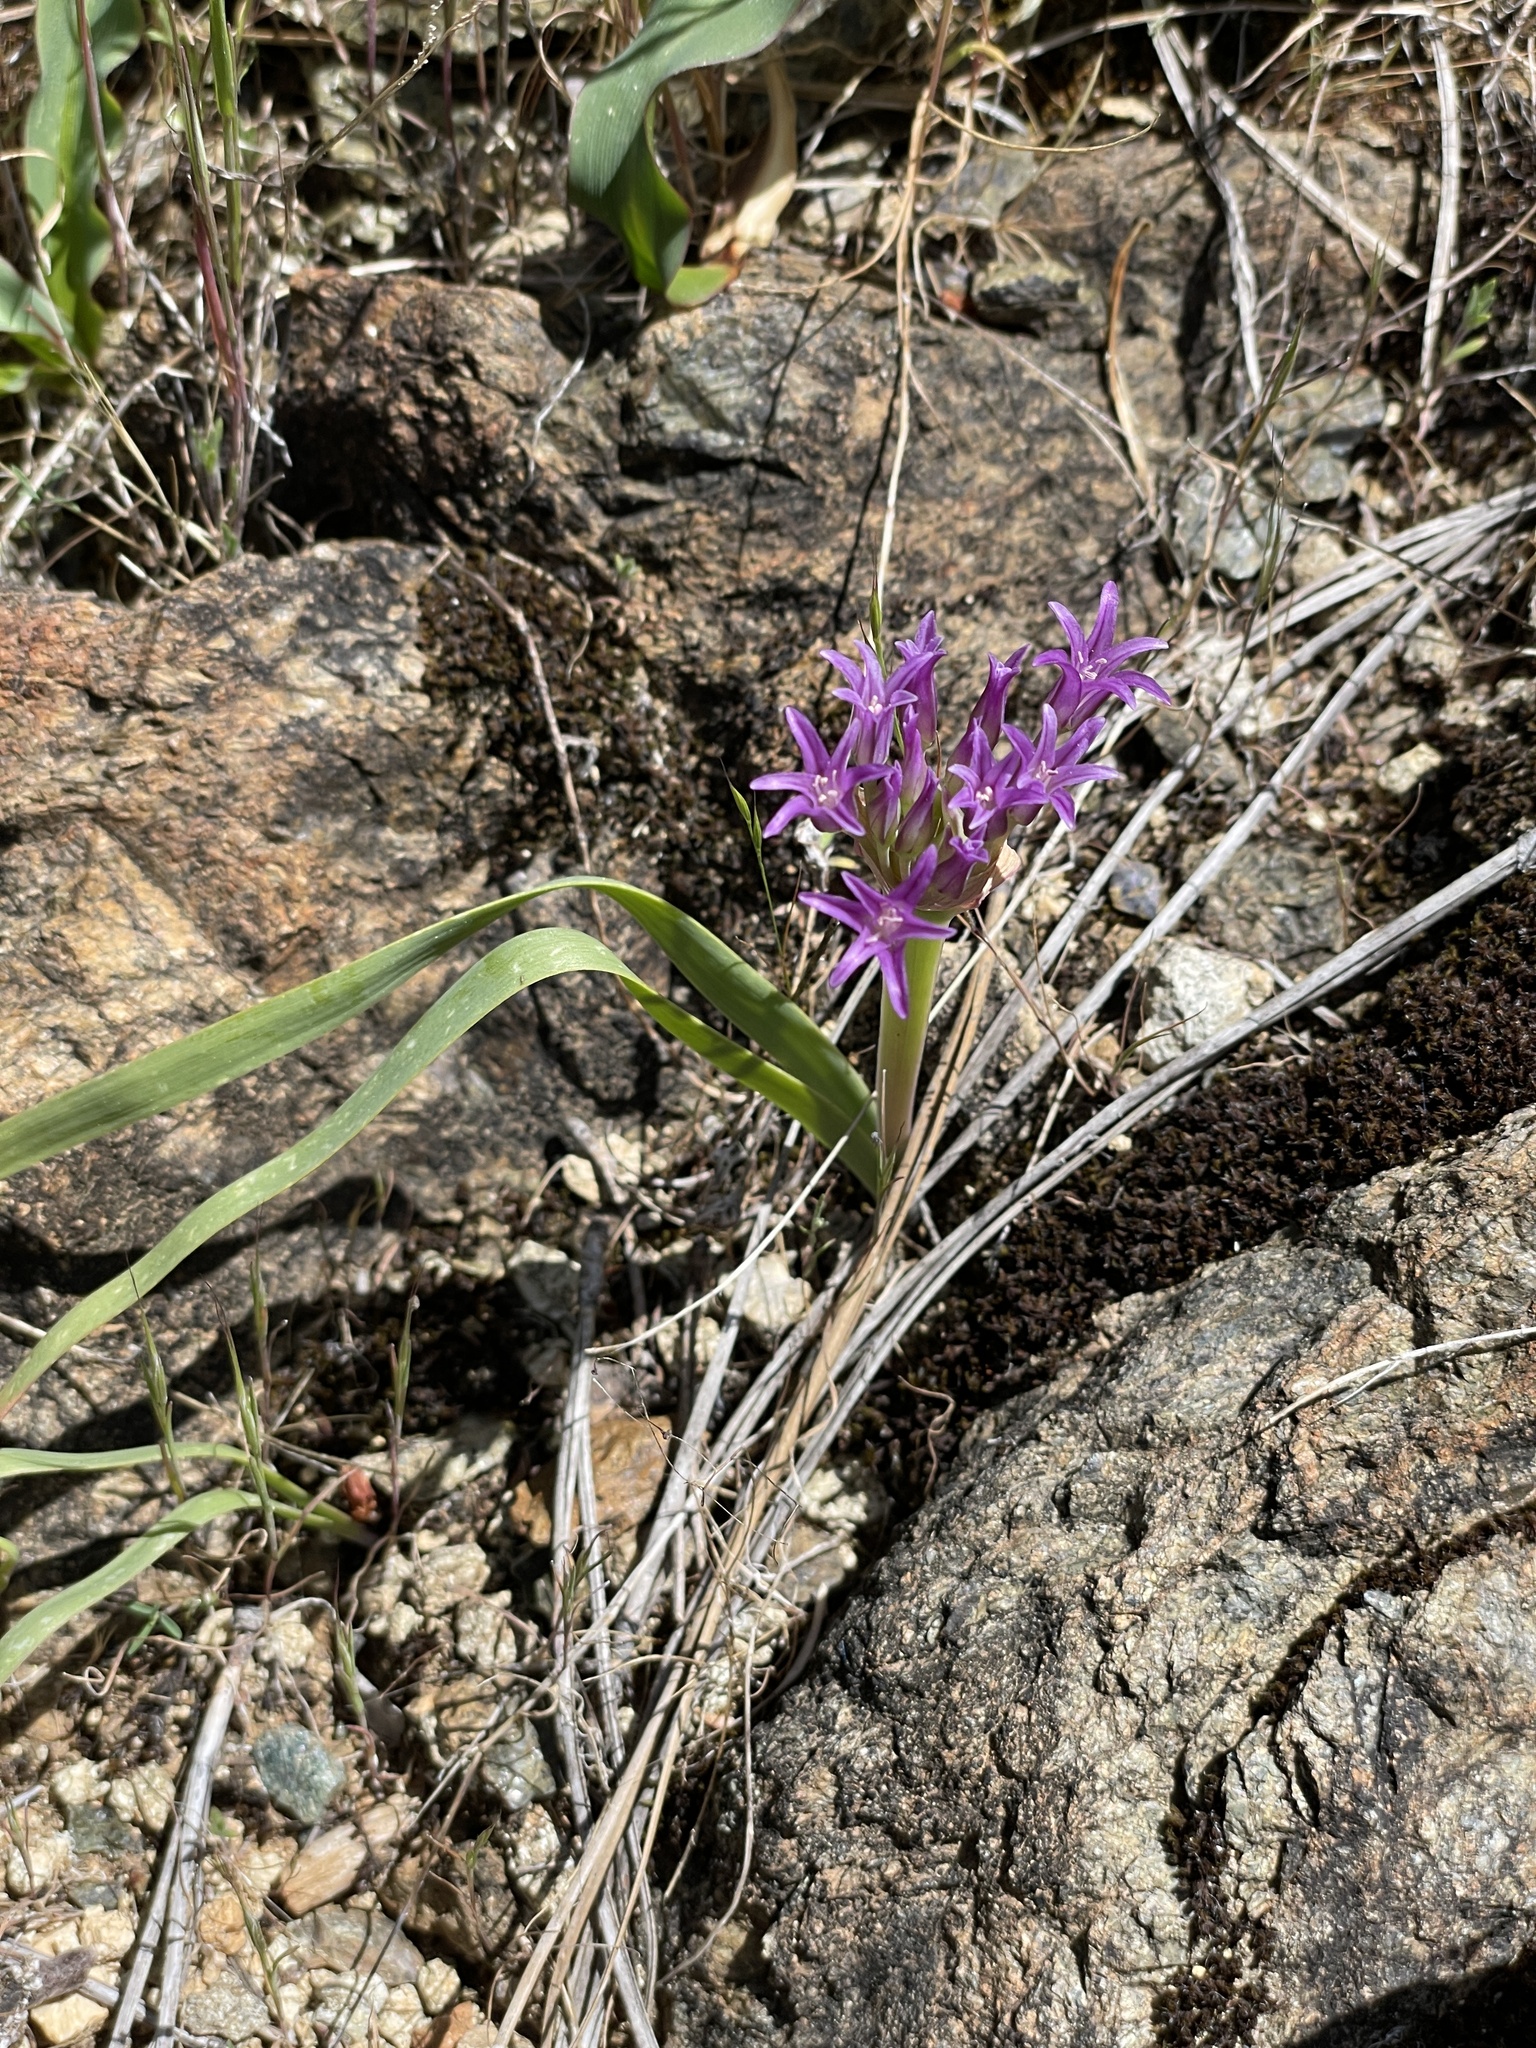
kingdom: Plantae
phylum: Tracheophyta
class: Liliopsida
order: Asparagales
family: Amaryllidaceae
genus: Allium
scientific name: Allium falcifolium
